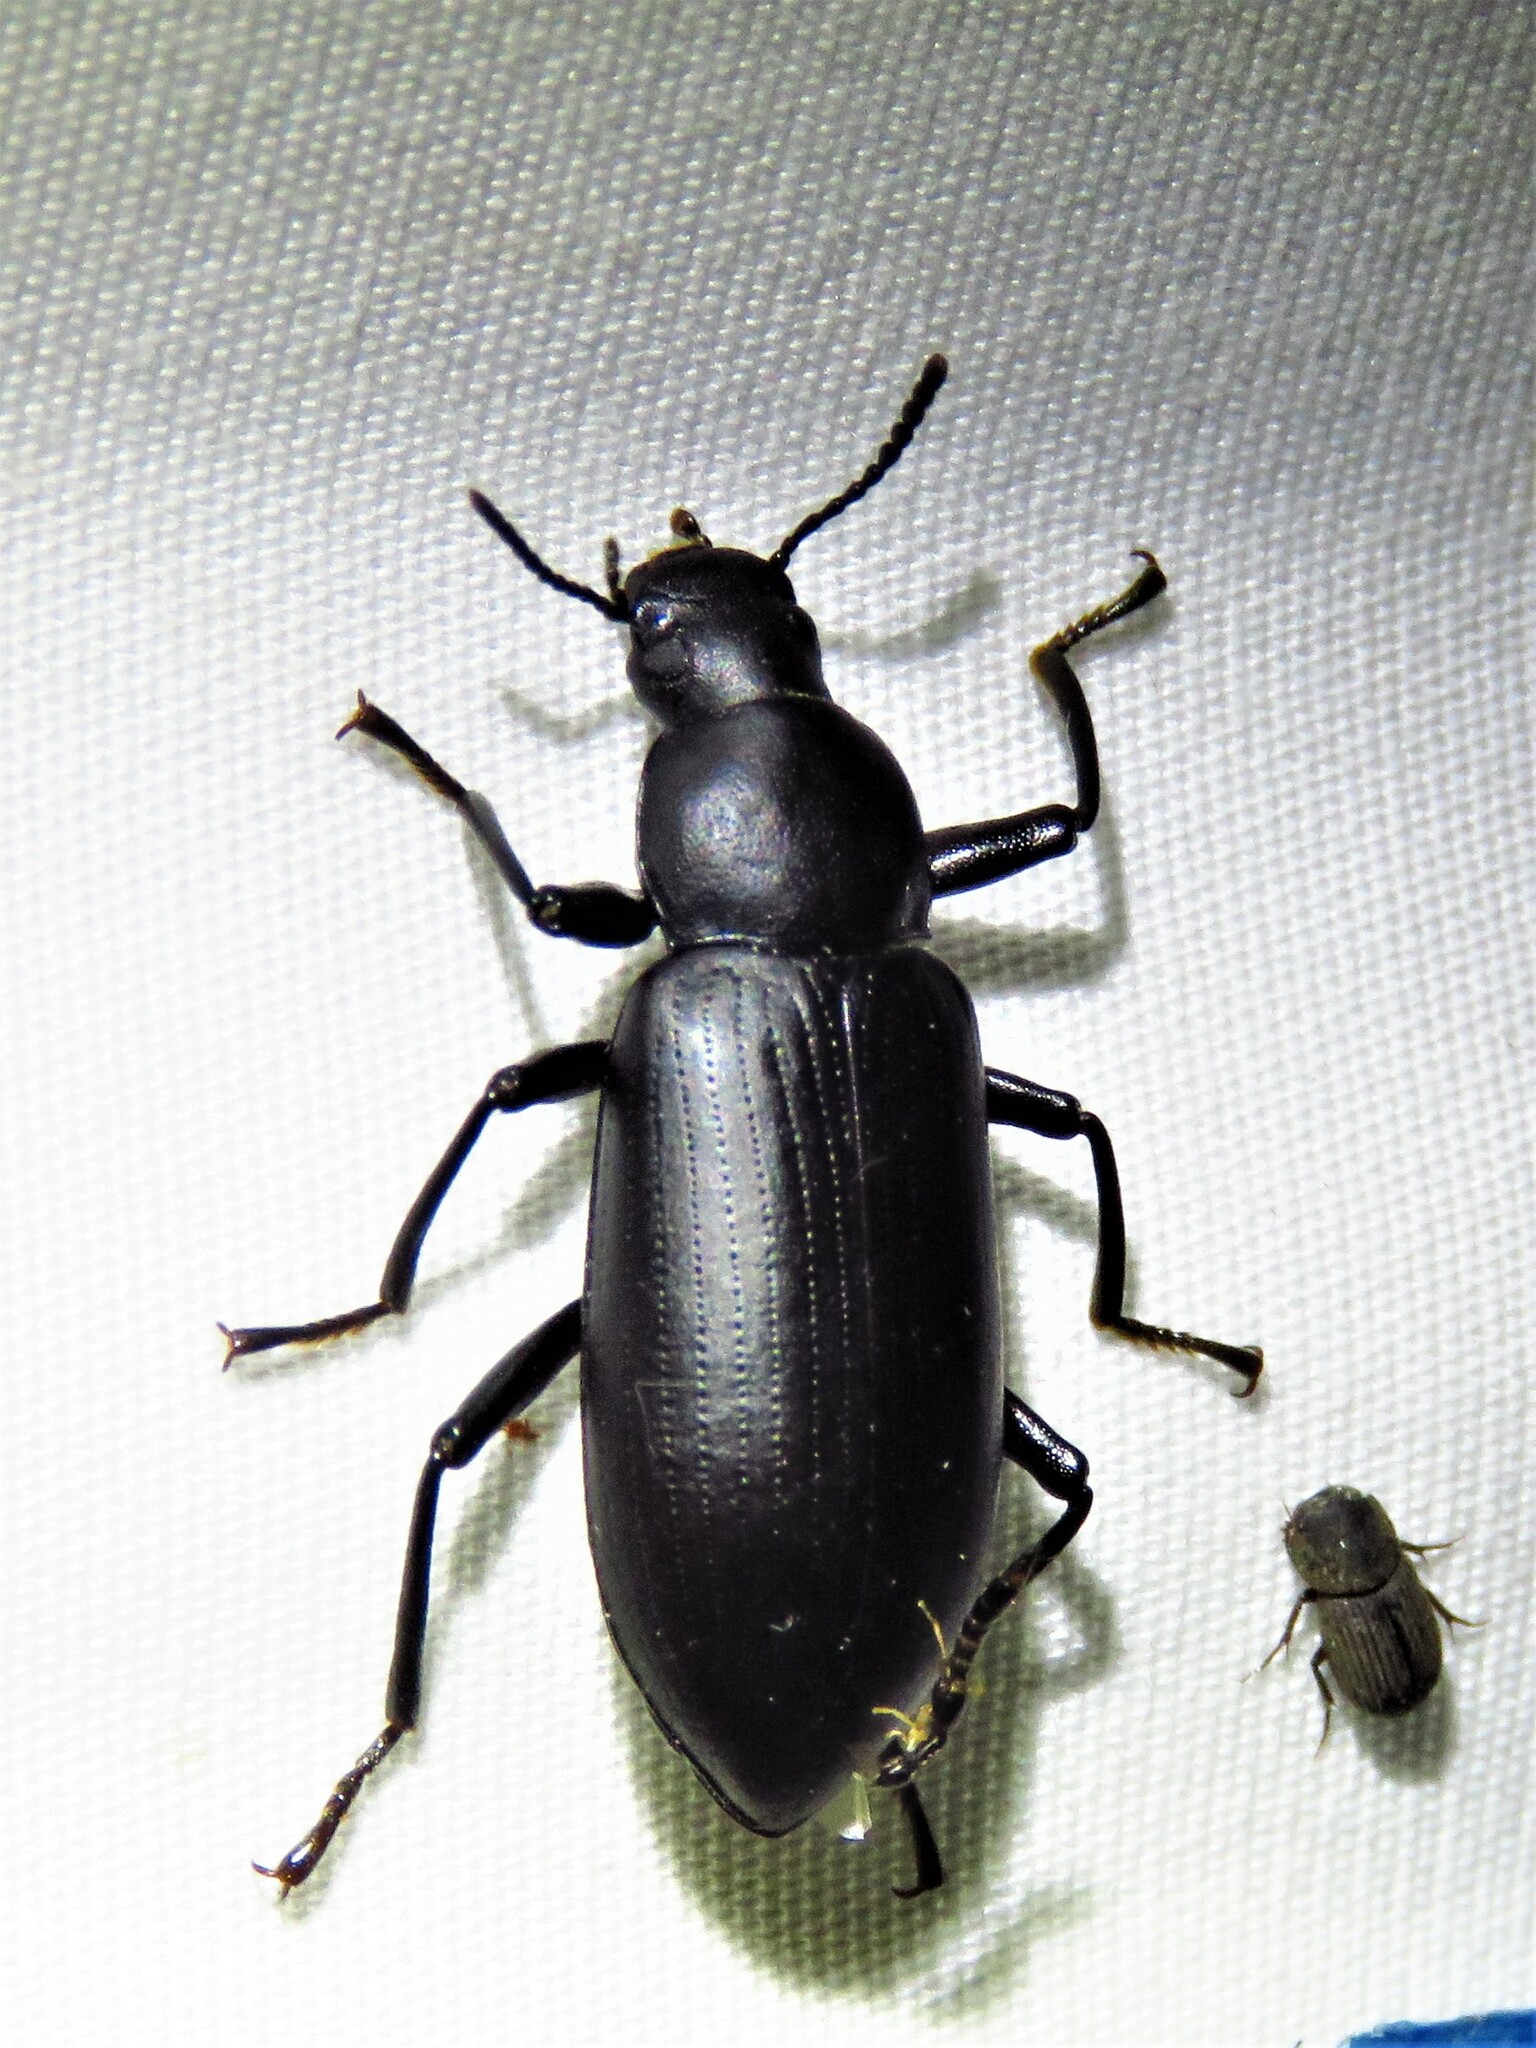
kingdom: Animalia
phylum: Arthropoda
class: Insecta
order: Coleoptera
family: Tenebrionidae
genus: Alobates
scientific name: Alobates pensylvanicus
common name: False mealworm beetle
